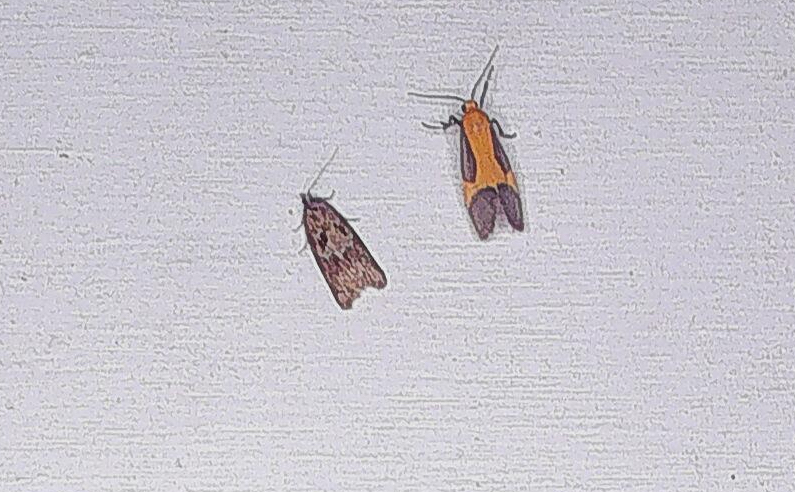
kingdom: Animalia
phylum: Arthropoda
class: Insecta
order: Lepidoptera
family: Erebidae
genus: Cisthene
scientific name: Cisthene picta
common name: Pictured lichen moth
